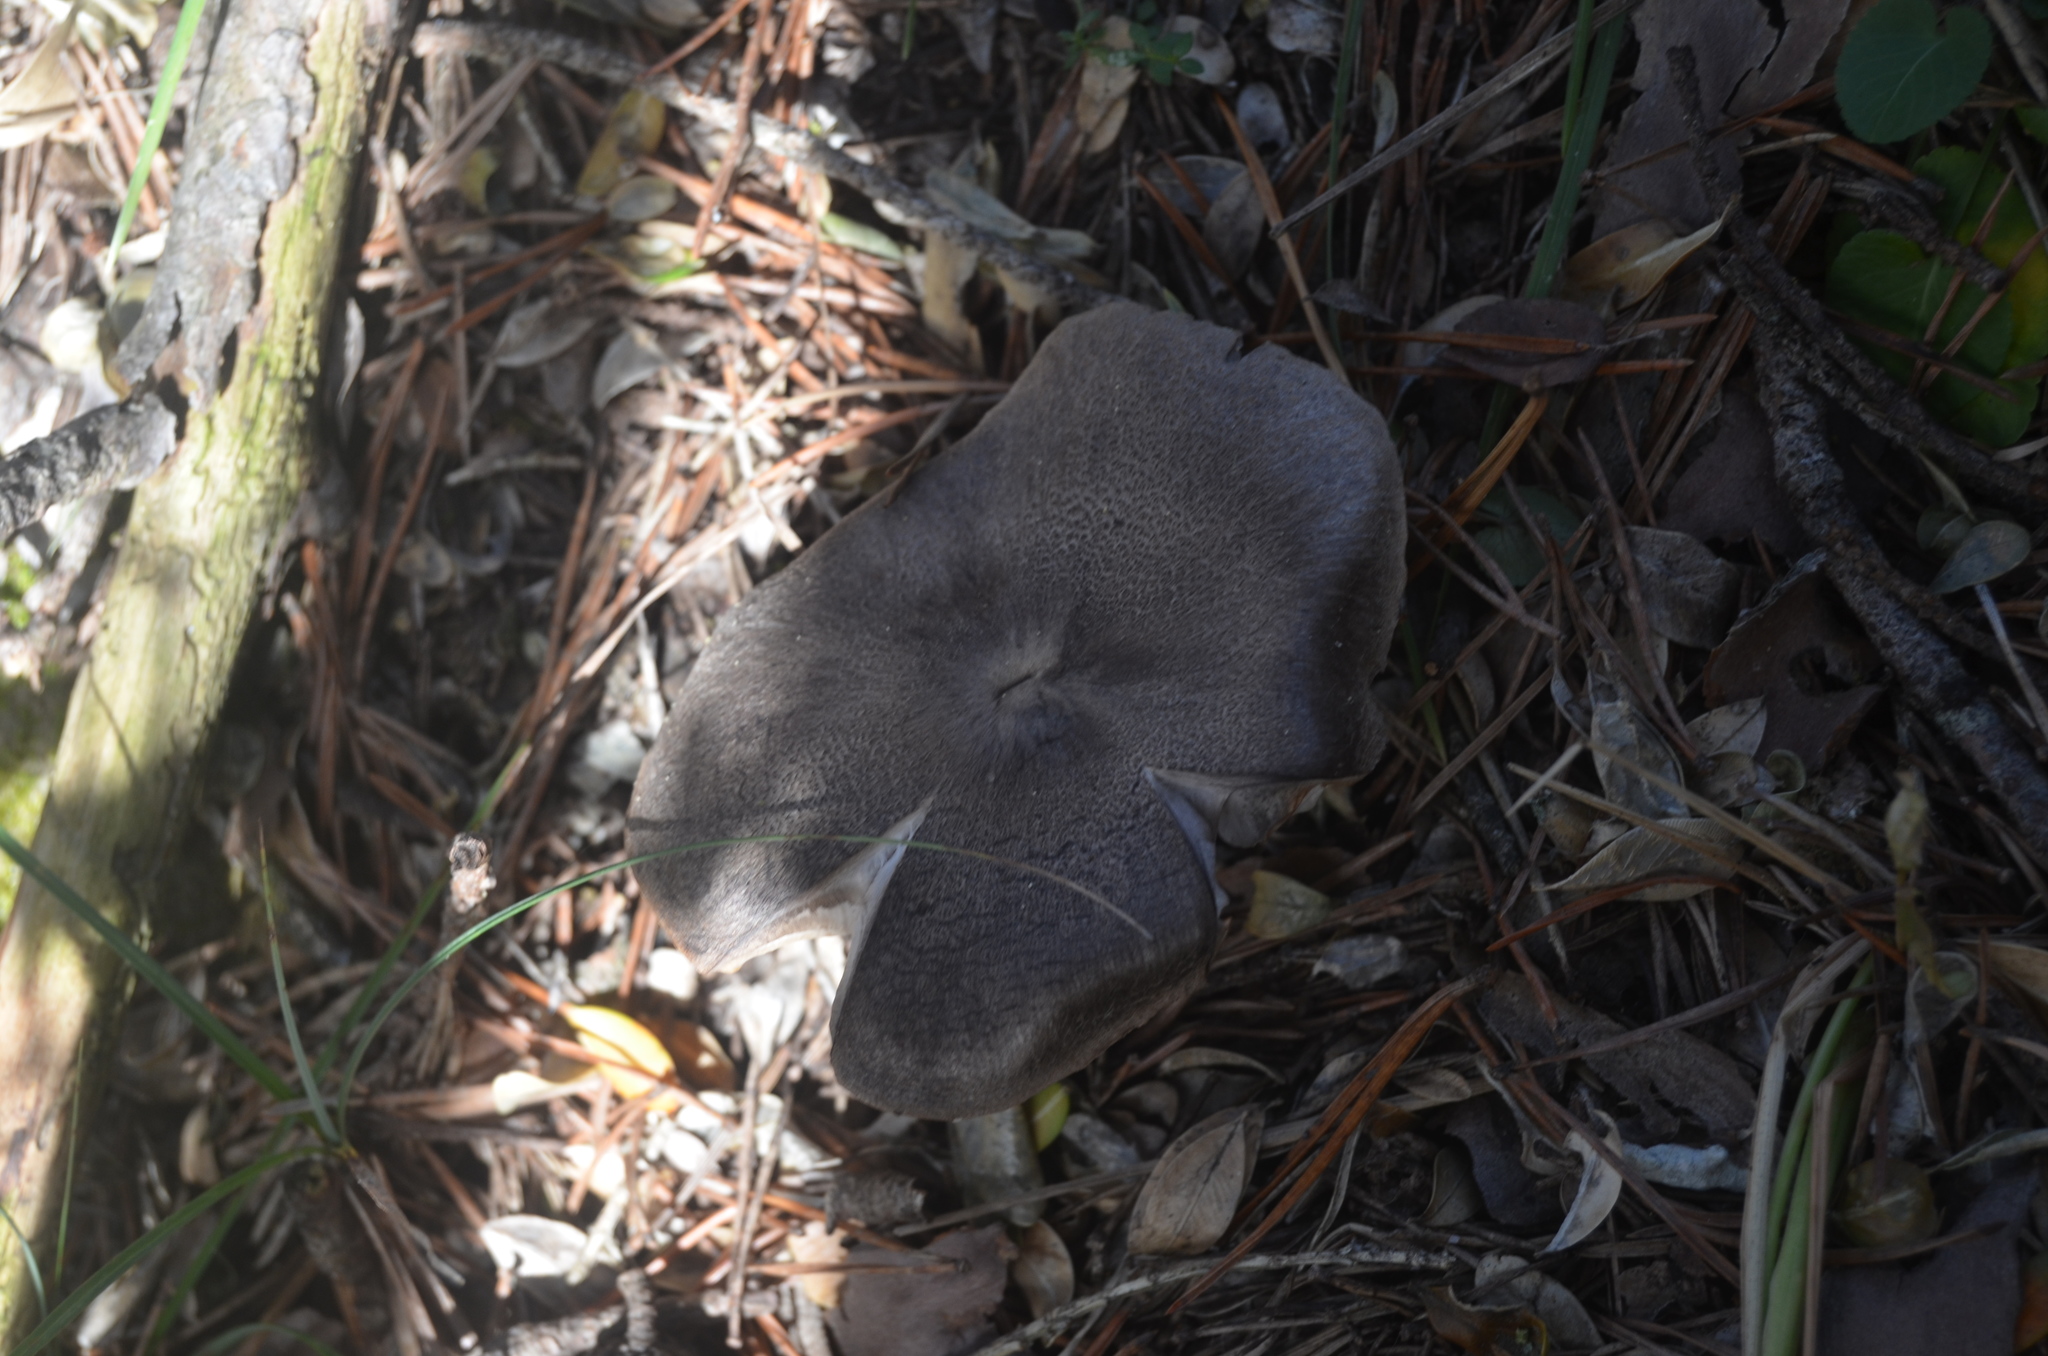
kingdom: Fungi
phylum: Basidiomycota
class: Agaricomycetes
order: Agaricales
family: Tricholomataceae
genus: Tricholoma
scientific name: Tricholoma terreum
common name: Grey knight
